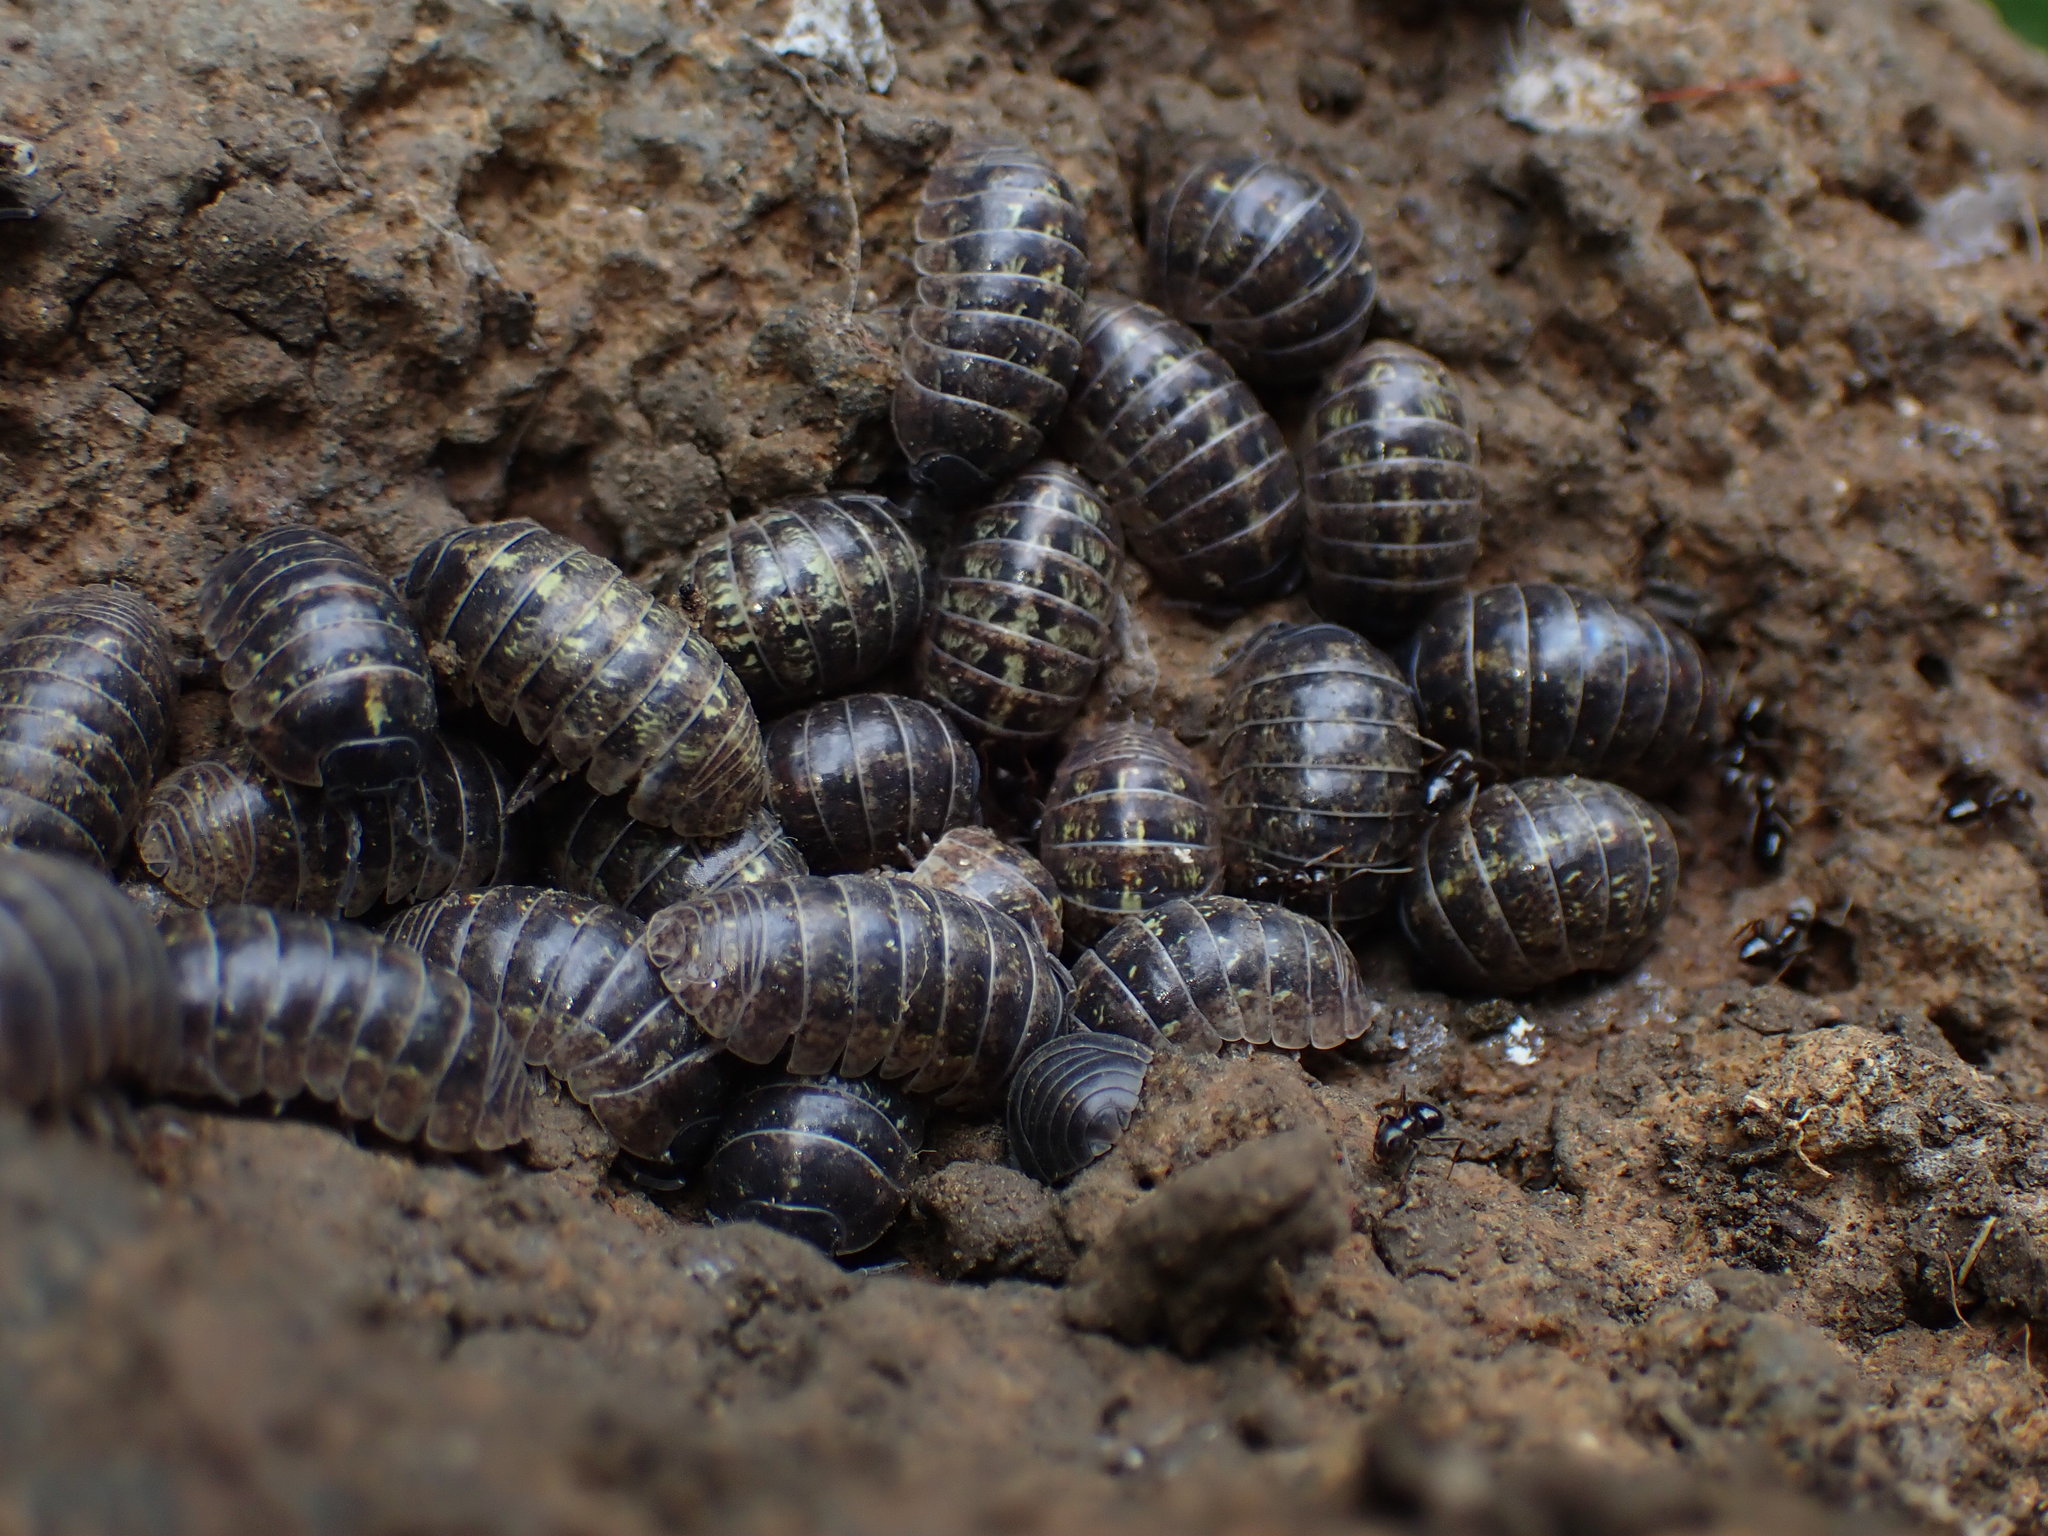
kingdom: Animalia
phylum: Arthropoda
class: Malacostraca
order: Isopoda
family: Armadillidiidae
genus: Armadillidium
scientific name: Armadillidium vulgare
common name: Common pill woodlouse
